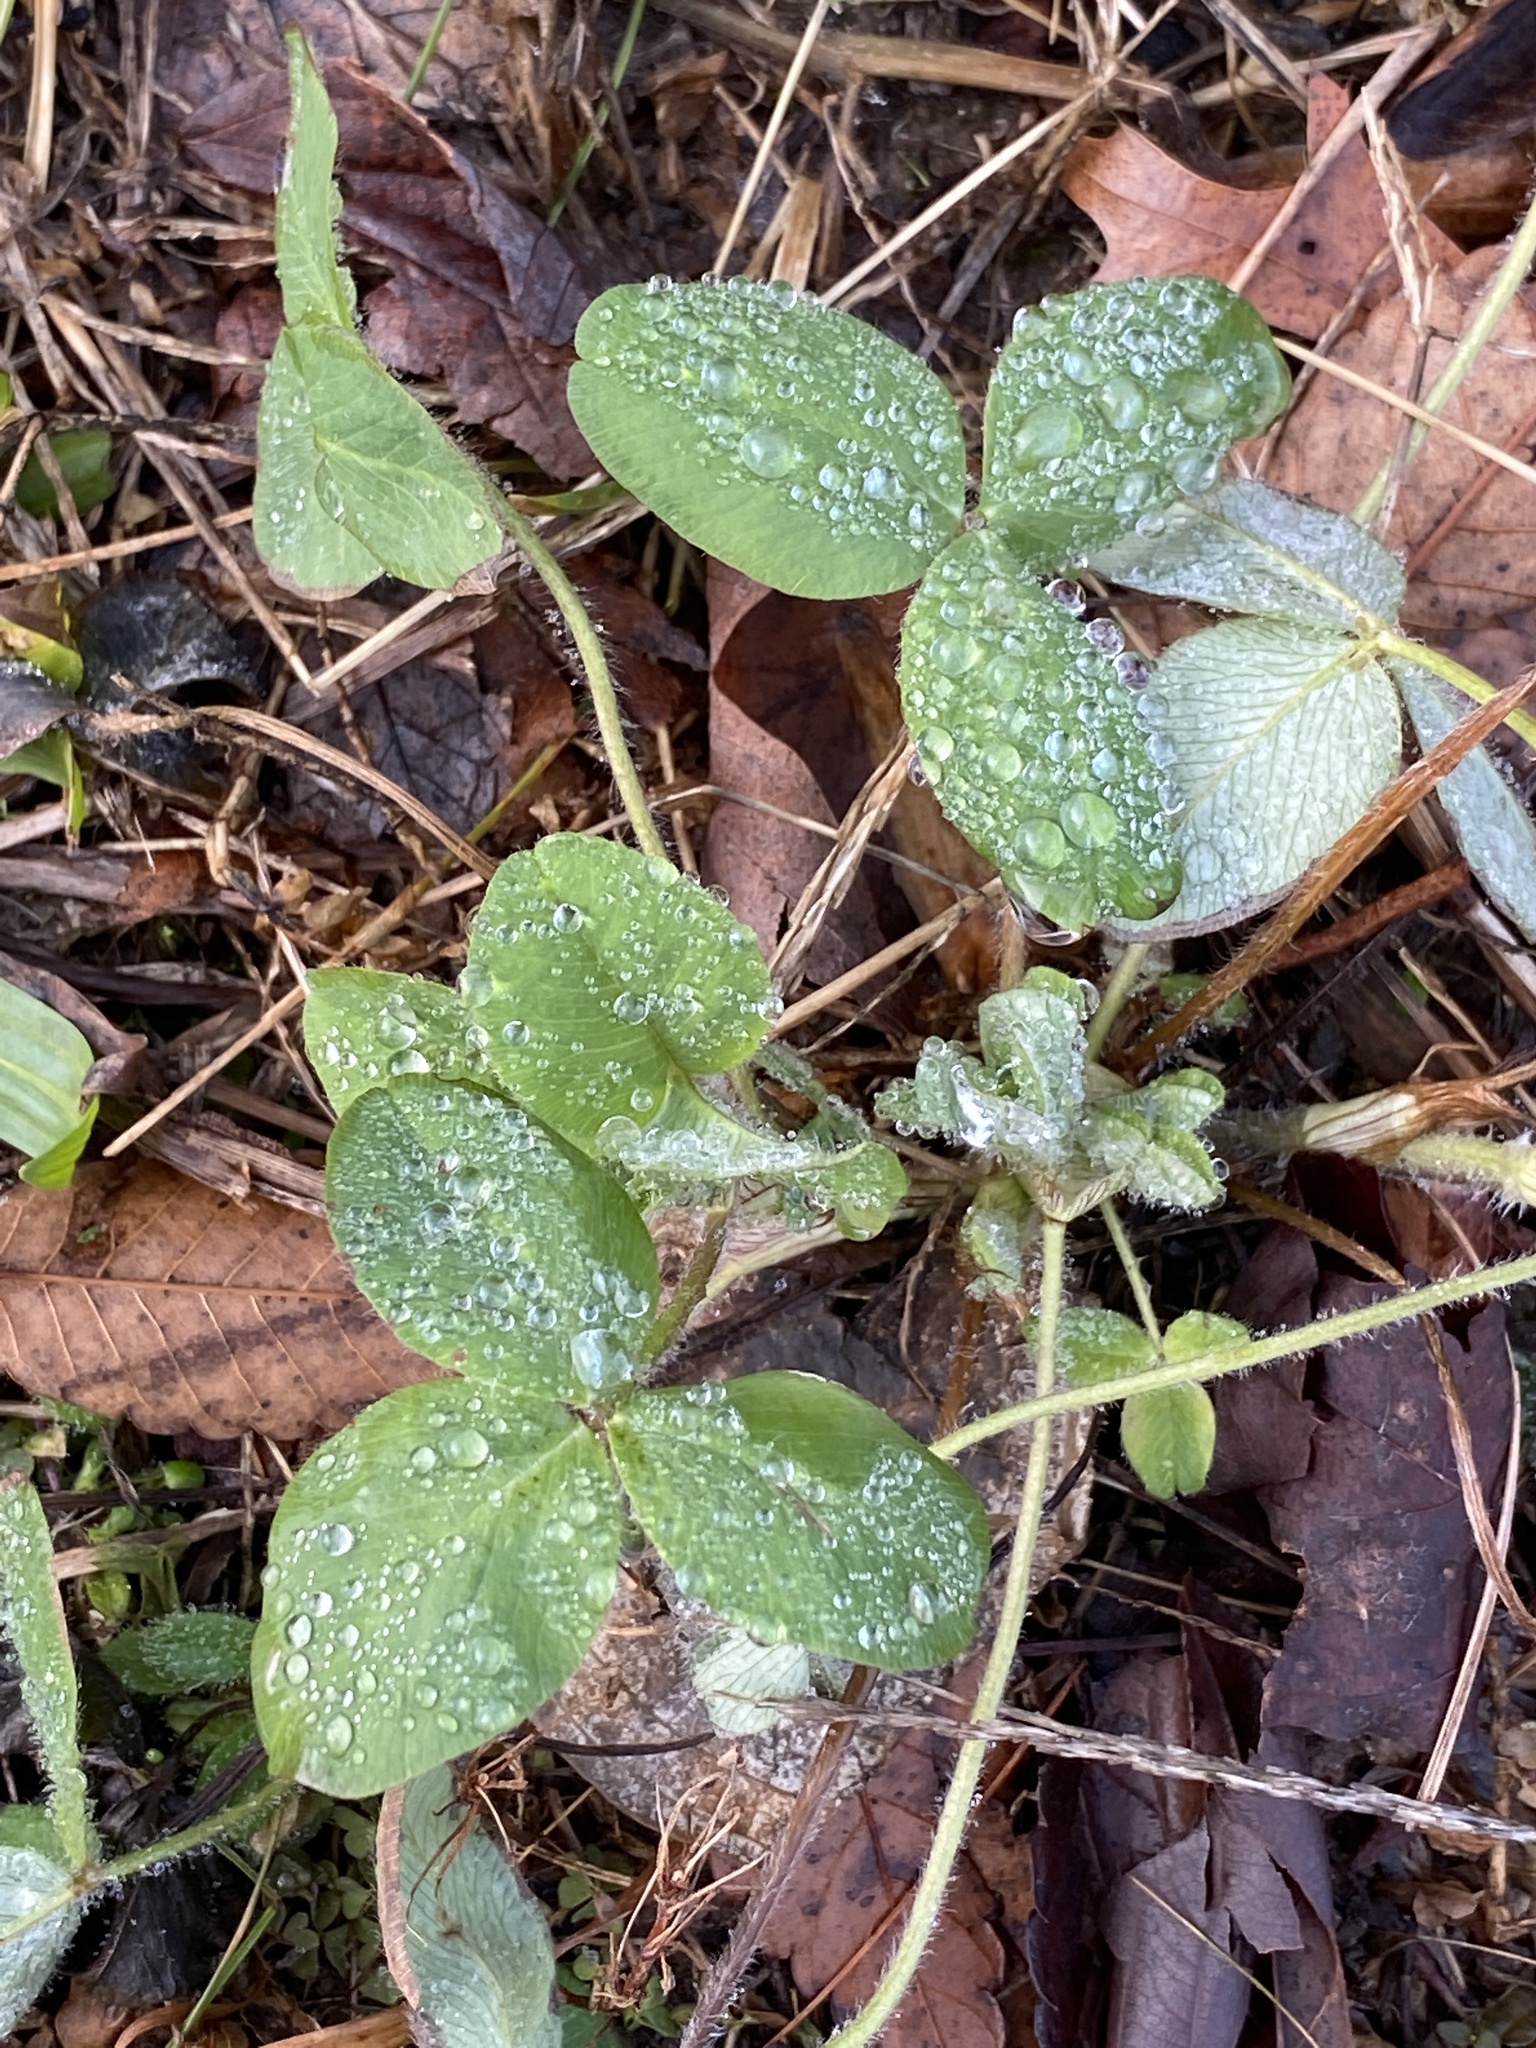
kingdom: Plantae
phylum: Tracheophyta
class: Magnoliopsida
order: Fabales
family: Fabaceae
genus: Trifolium
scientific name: Trifolium pratense
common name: Red clover
